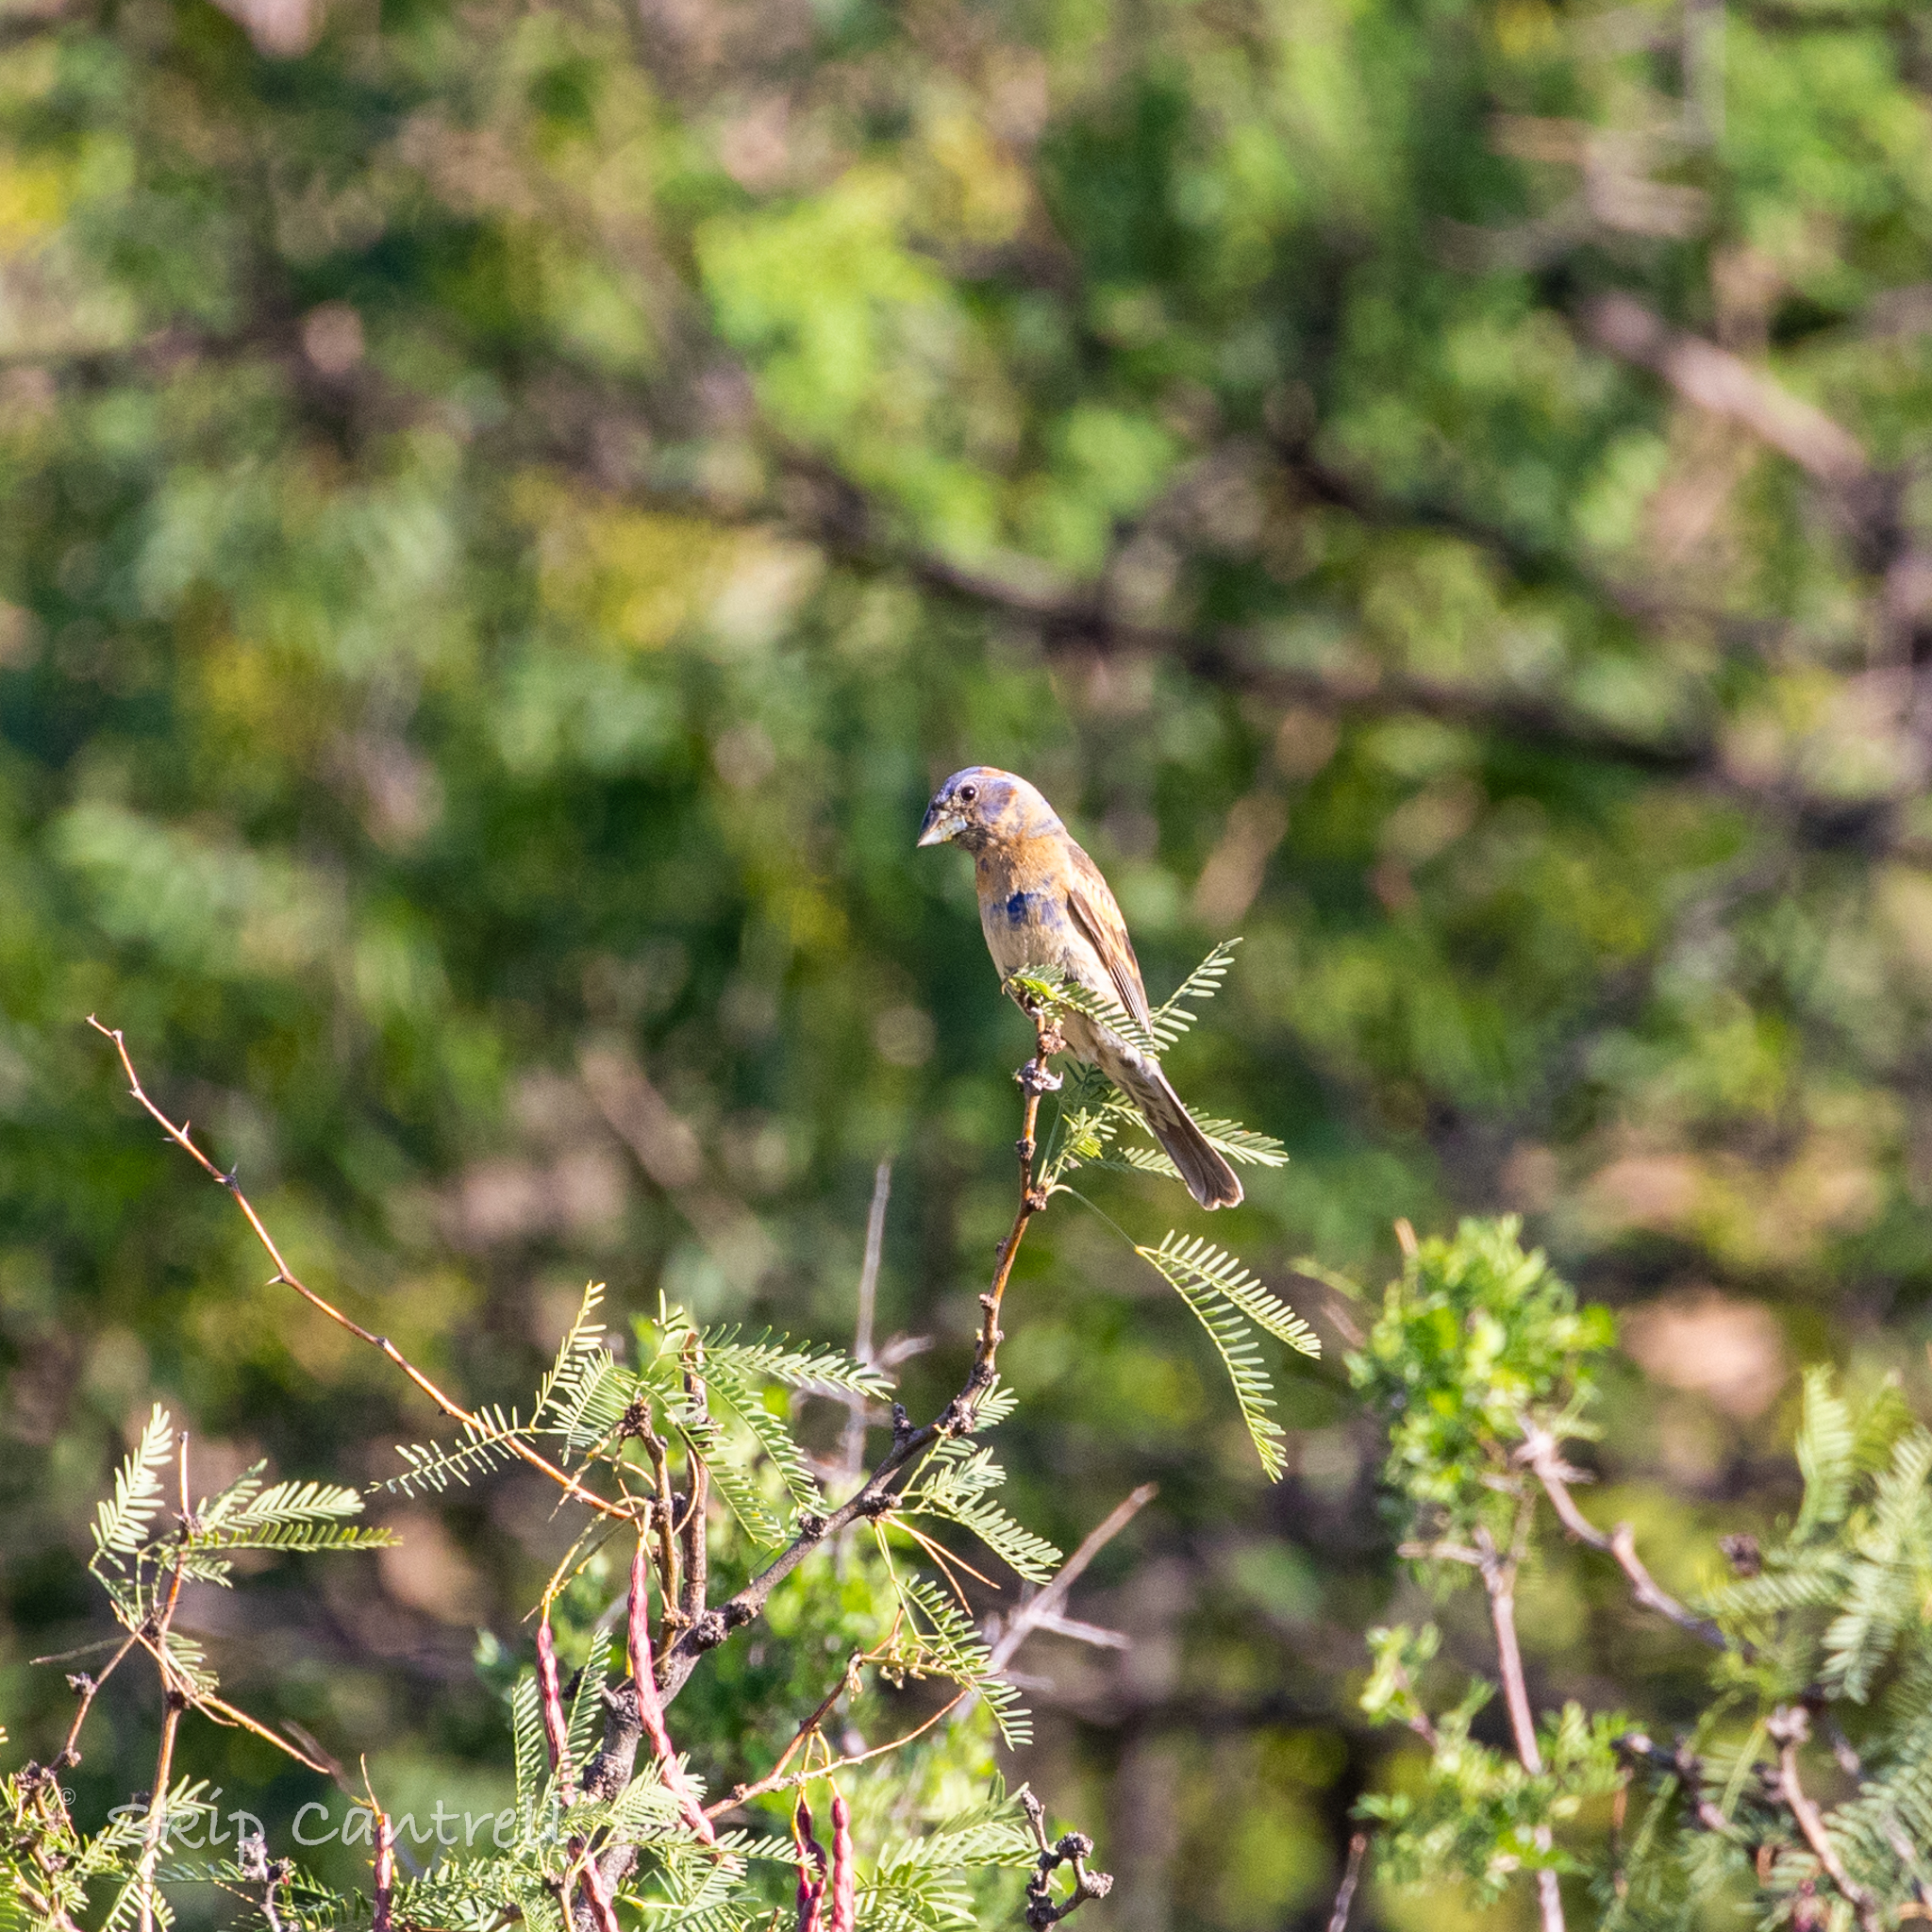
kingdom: Animalia
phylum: Chordata
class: Aves
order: Passeriformes
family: Cardinalidae
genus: Passerina
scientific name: Passerina caerulea
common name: Blue grosbeak
